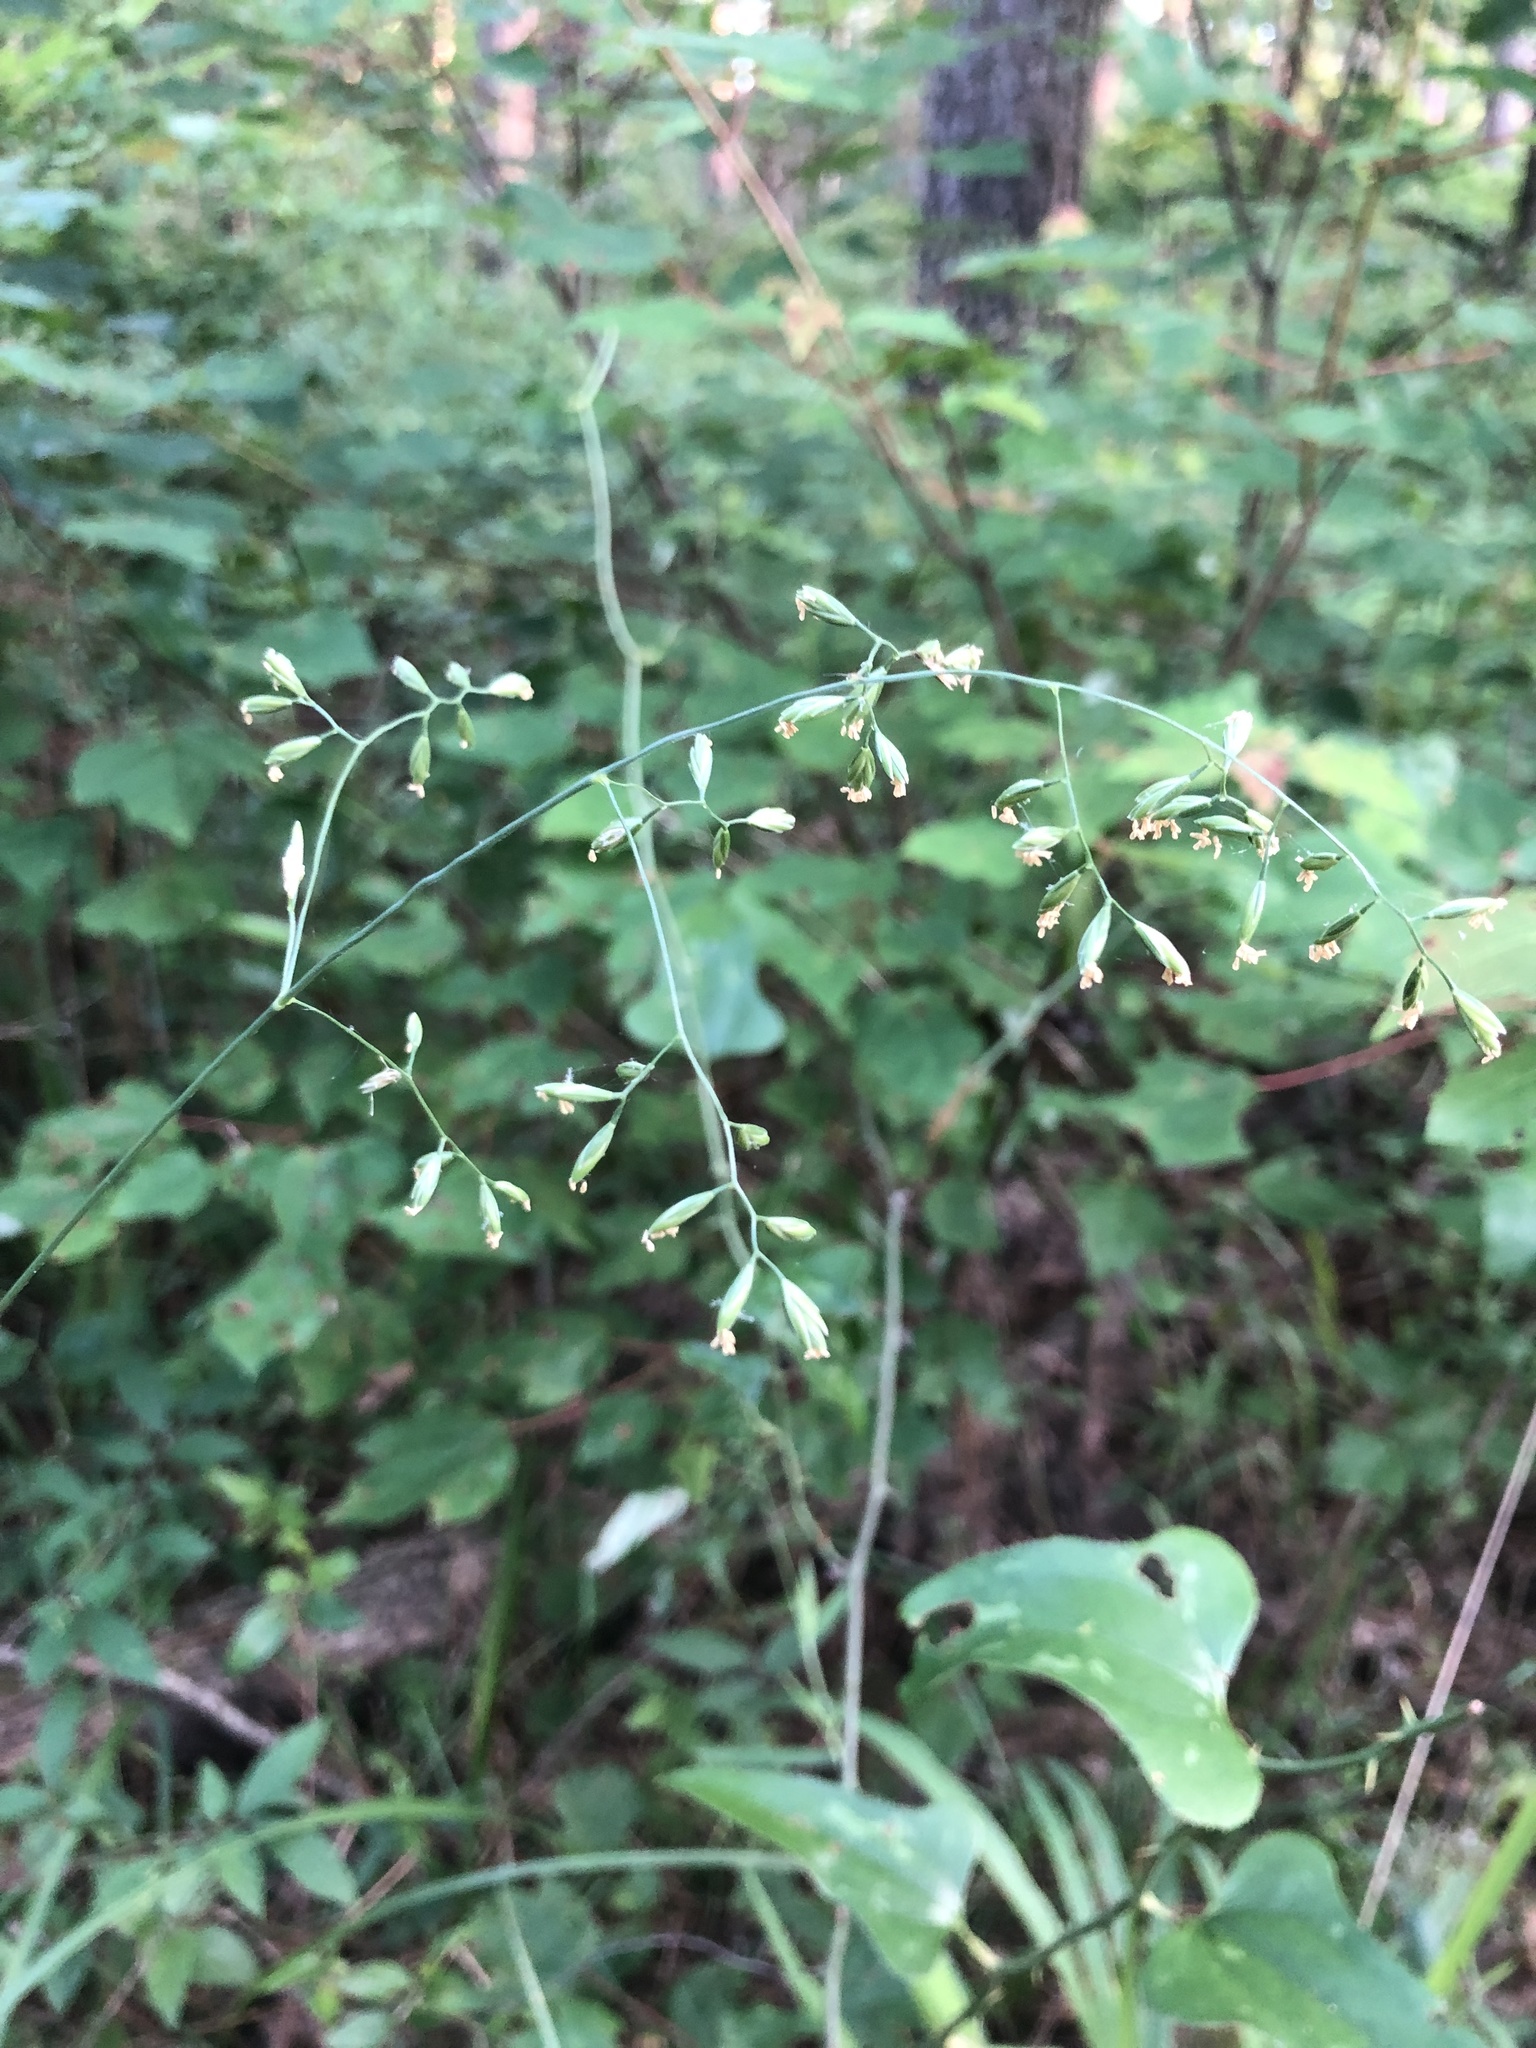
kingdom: Plantae
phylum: Tracheophyta
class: Liliopsida
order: Poales
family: Poaceae
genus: Festuca
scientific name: Festuca paradoxa
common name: Cluster fescue
